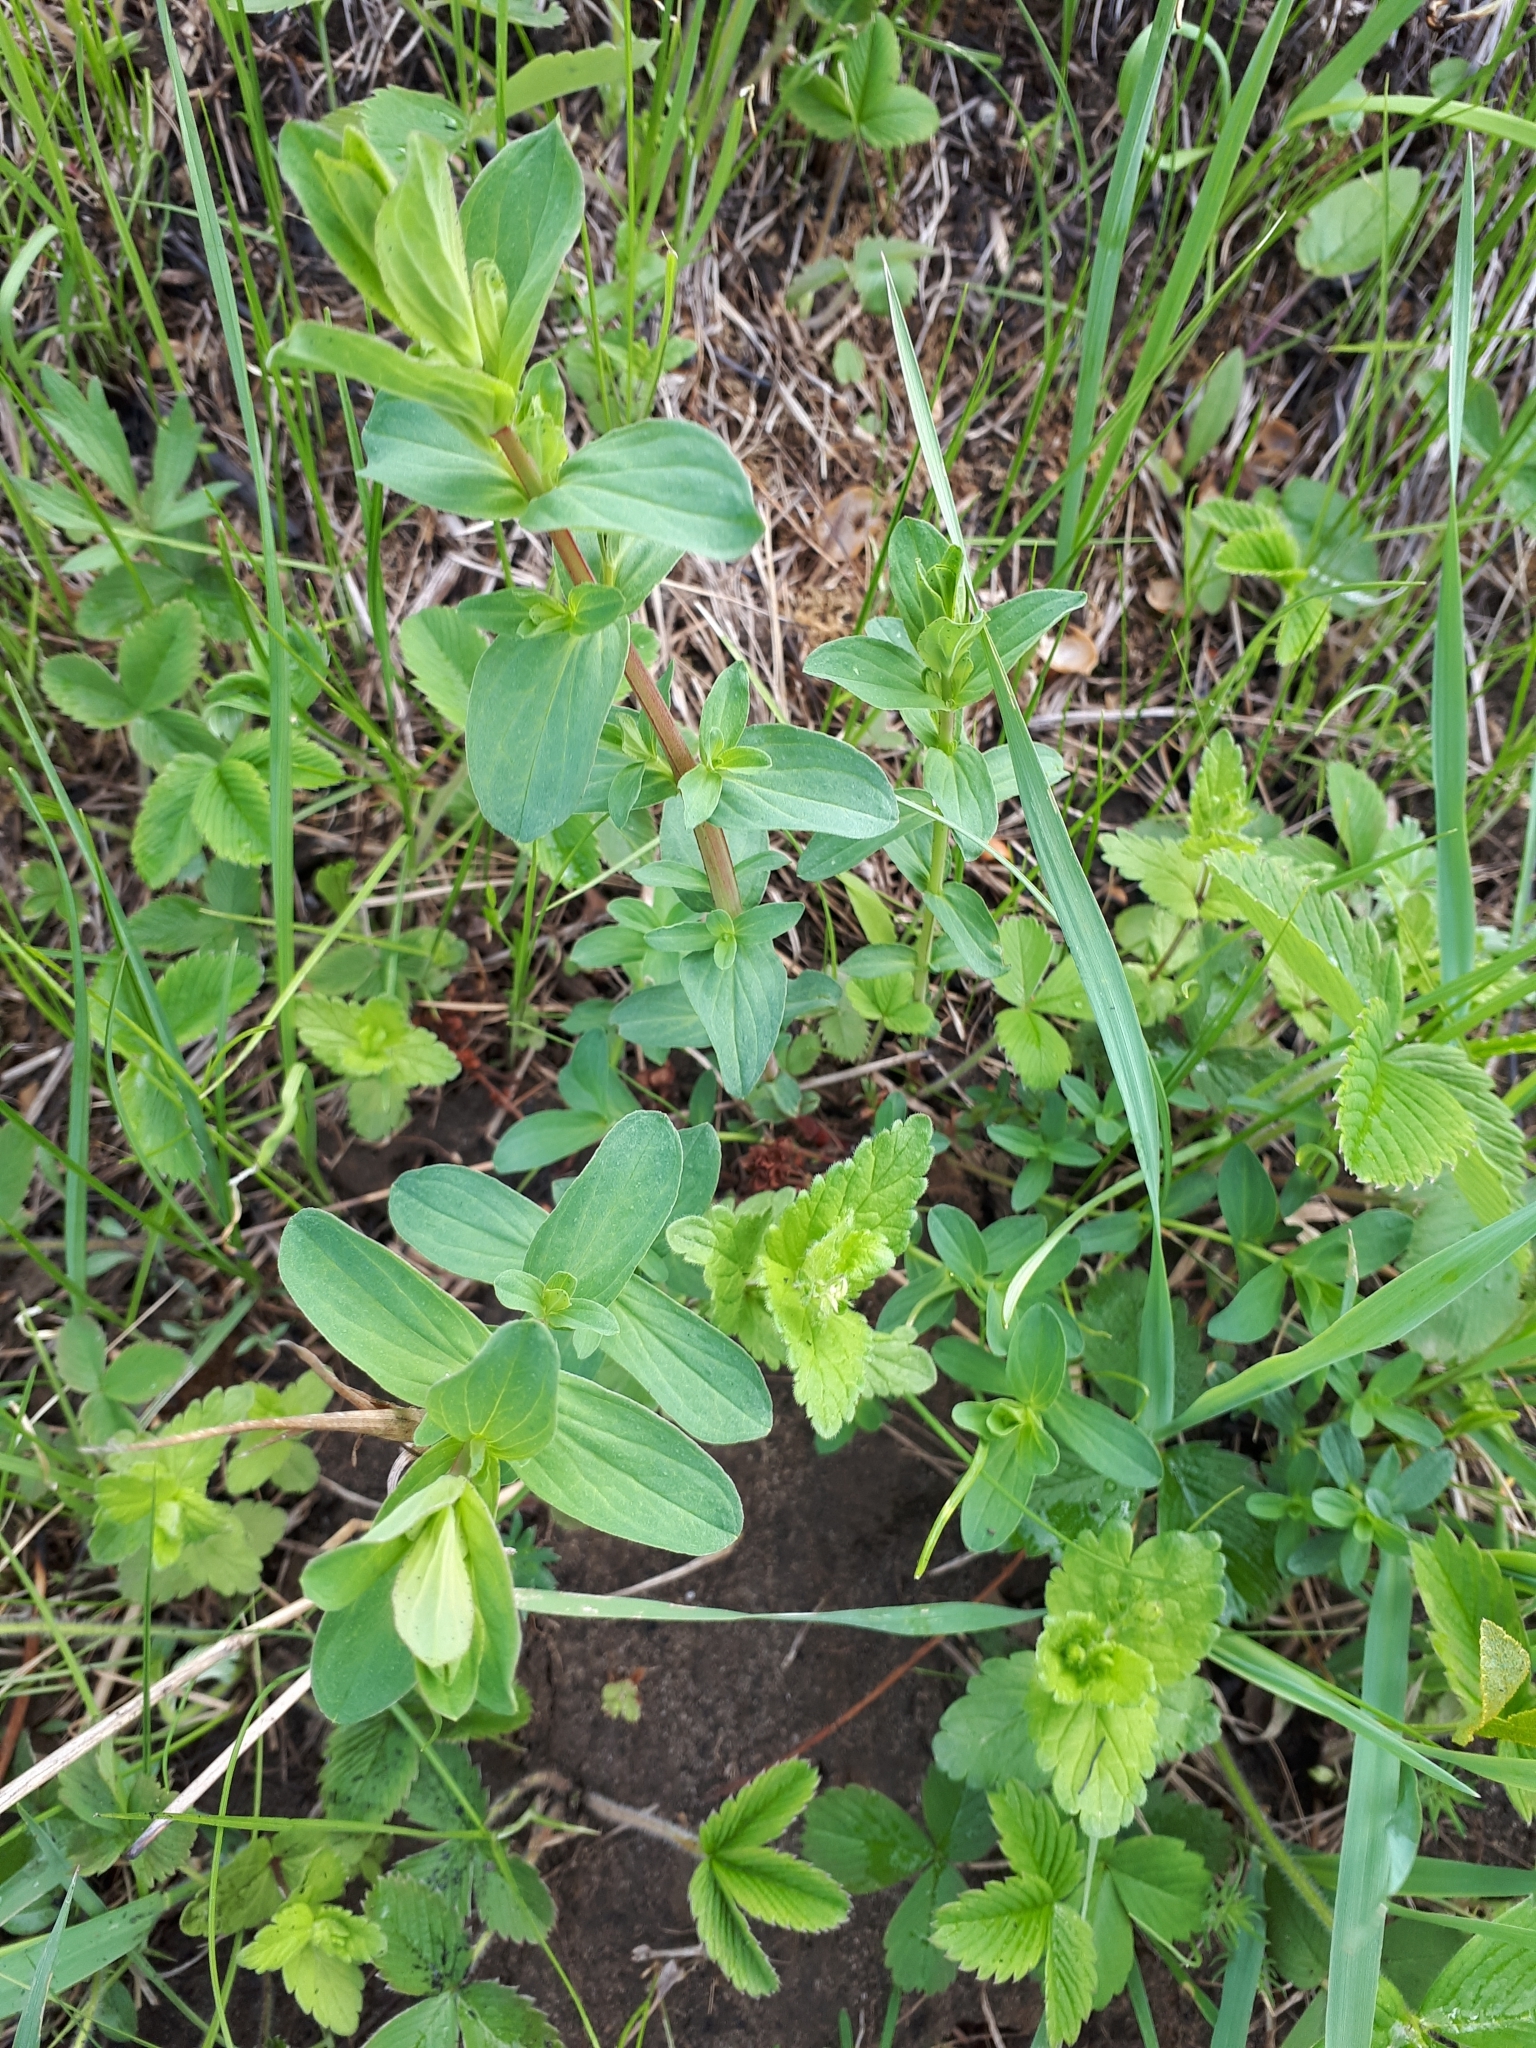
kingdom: Plantae
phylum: Tracheophyta
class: Magnoliopsida
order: Malpighiales
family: Hypericaceae
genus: Hypericum
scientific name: Hypericum perforatum
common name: Common st. johnswort
